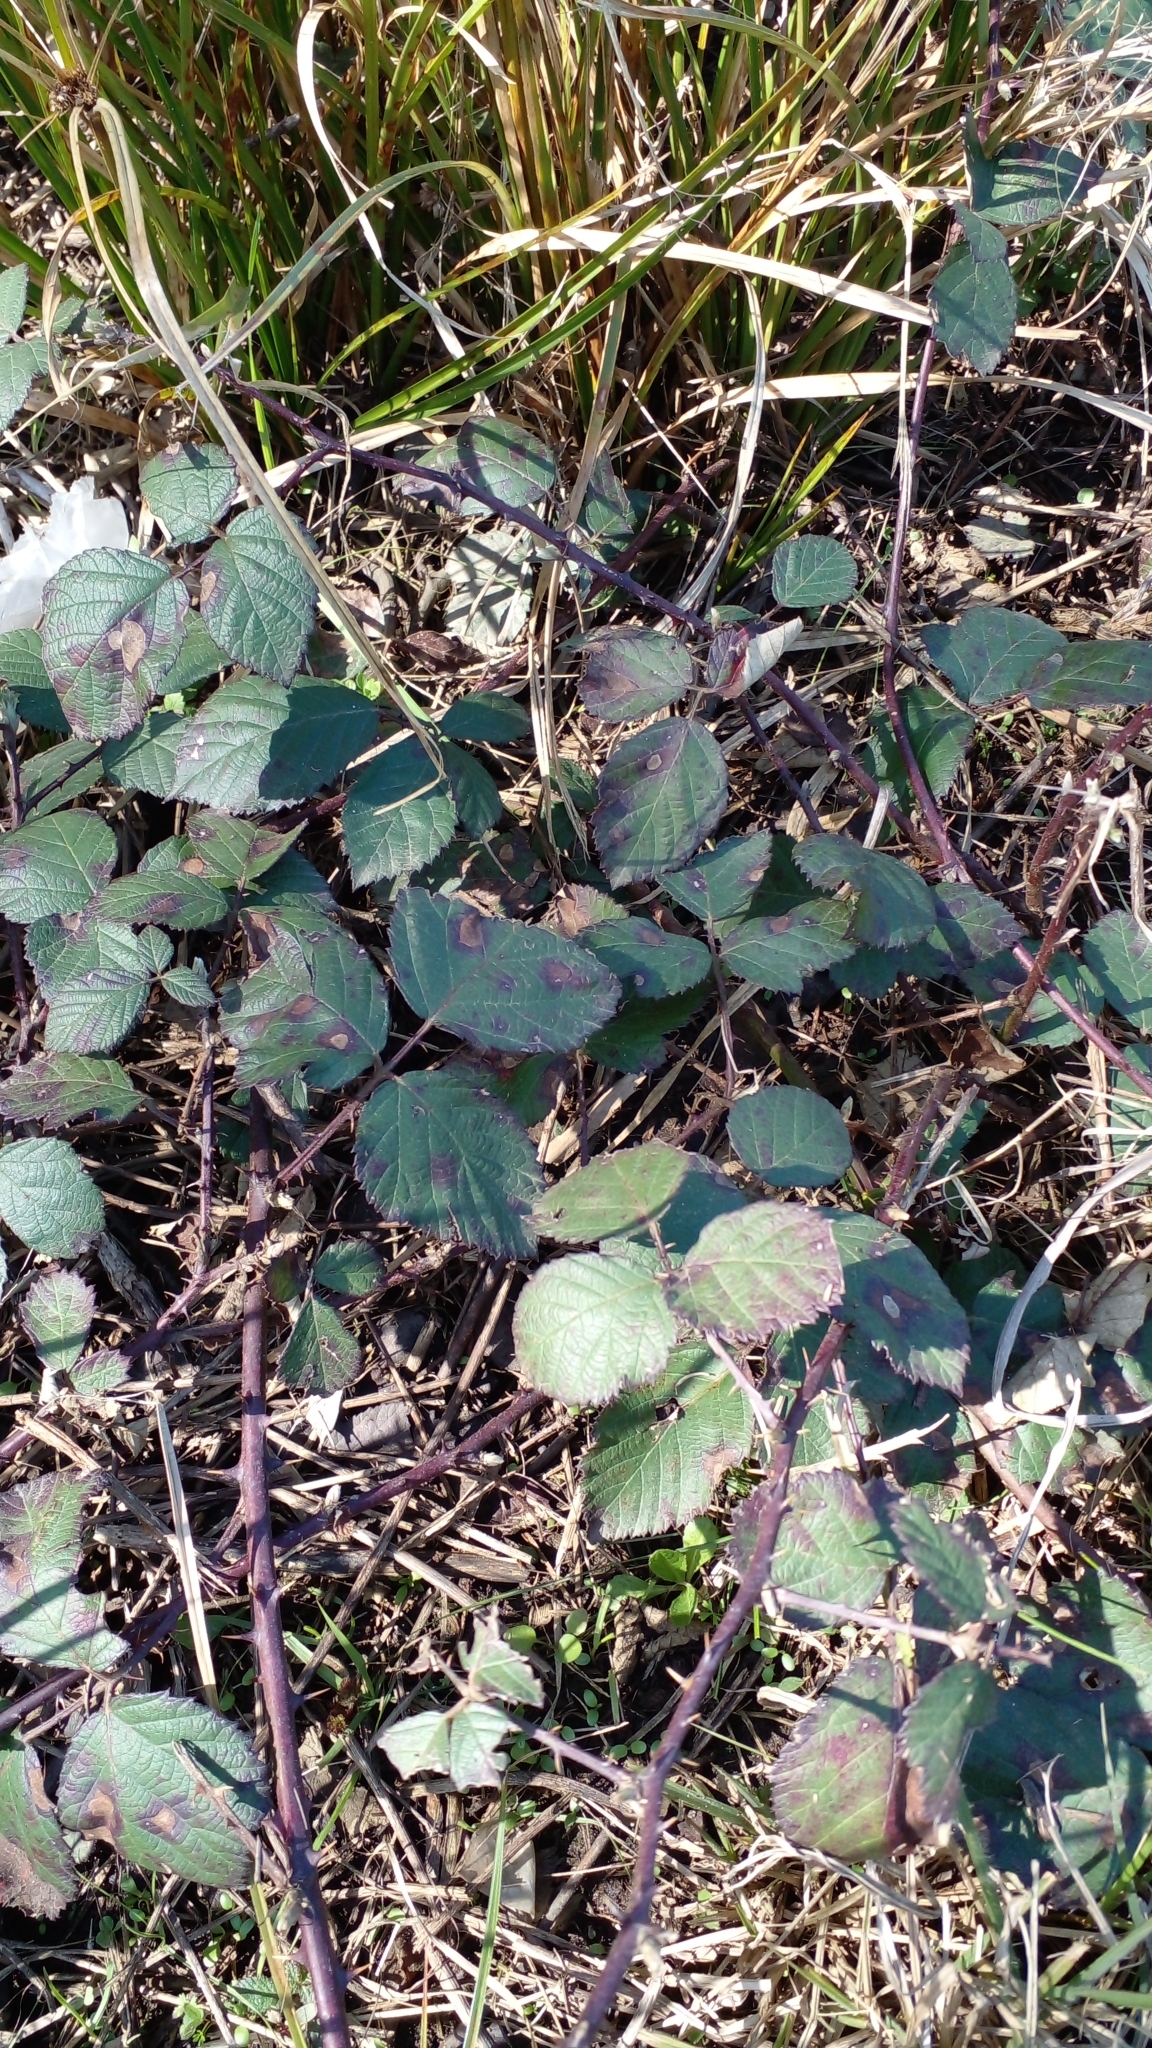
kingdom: Plantae
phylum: Tracheophyta
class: Magnoliopsida
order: Rosales
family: Rosaceae
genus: Rubus
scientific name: Rubus ulmifolius
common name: Elmleaf blackberry
